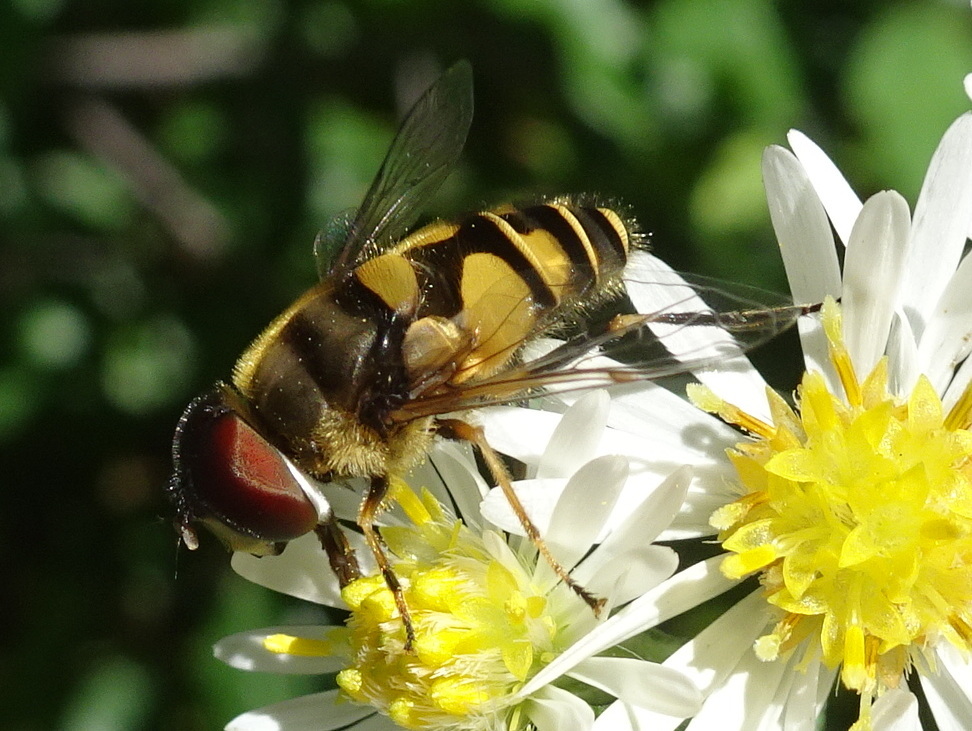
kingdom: Animalia
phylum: Arthropoda
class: Insecta
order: Diptera
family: Syrphidae
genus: Eristalis
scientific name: Eristalis transversa
